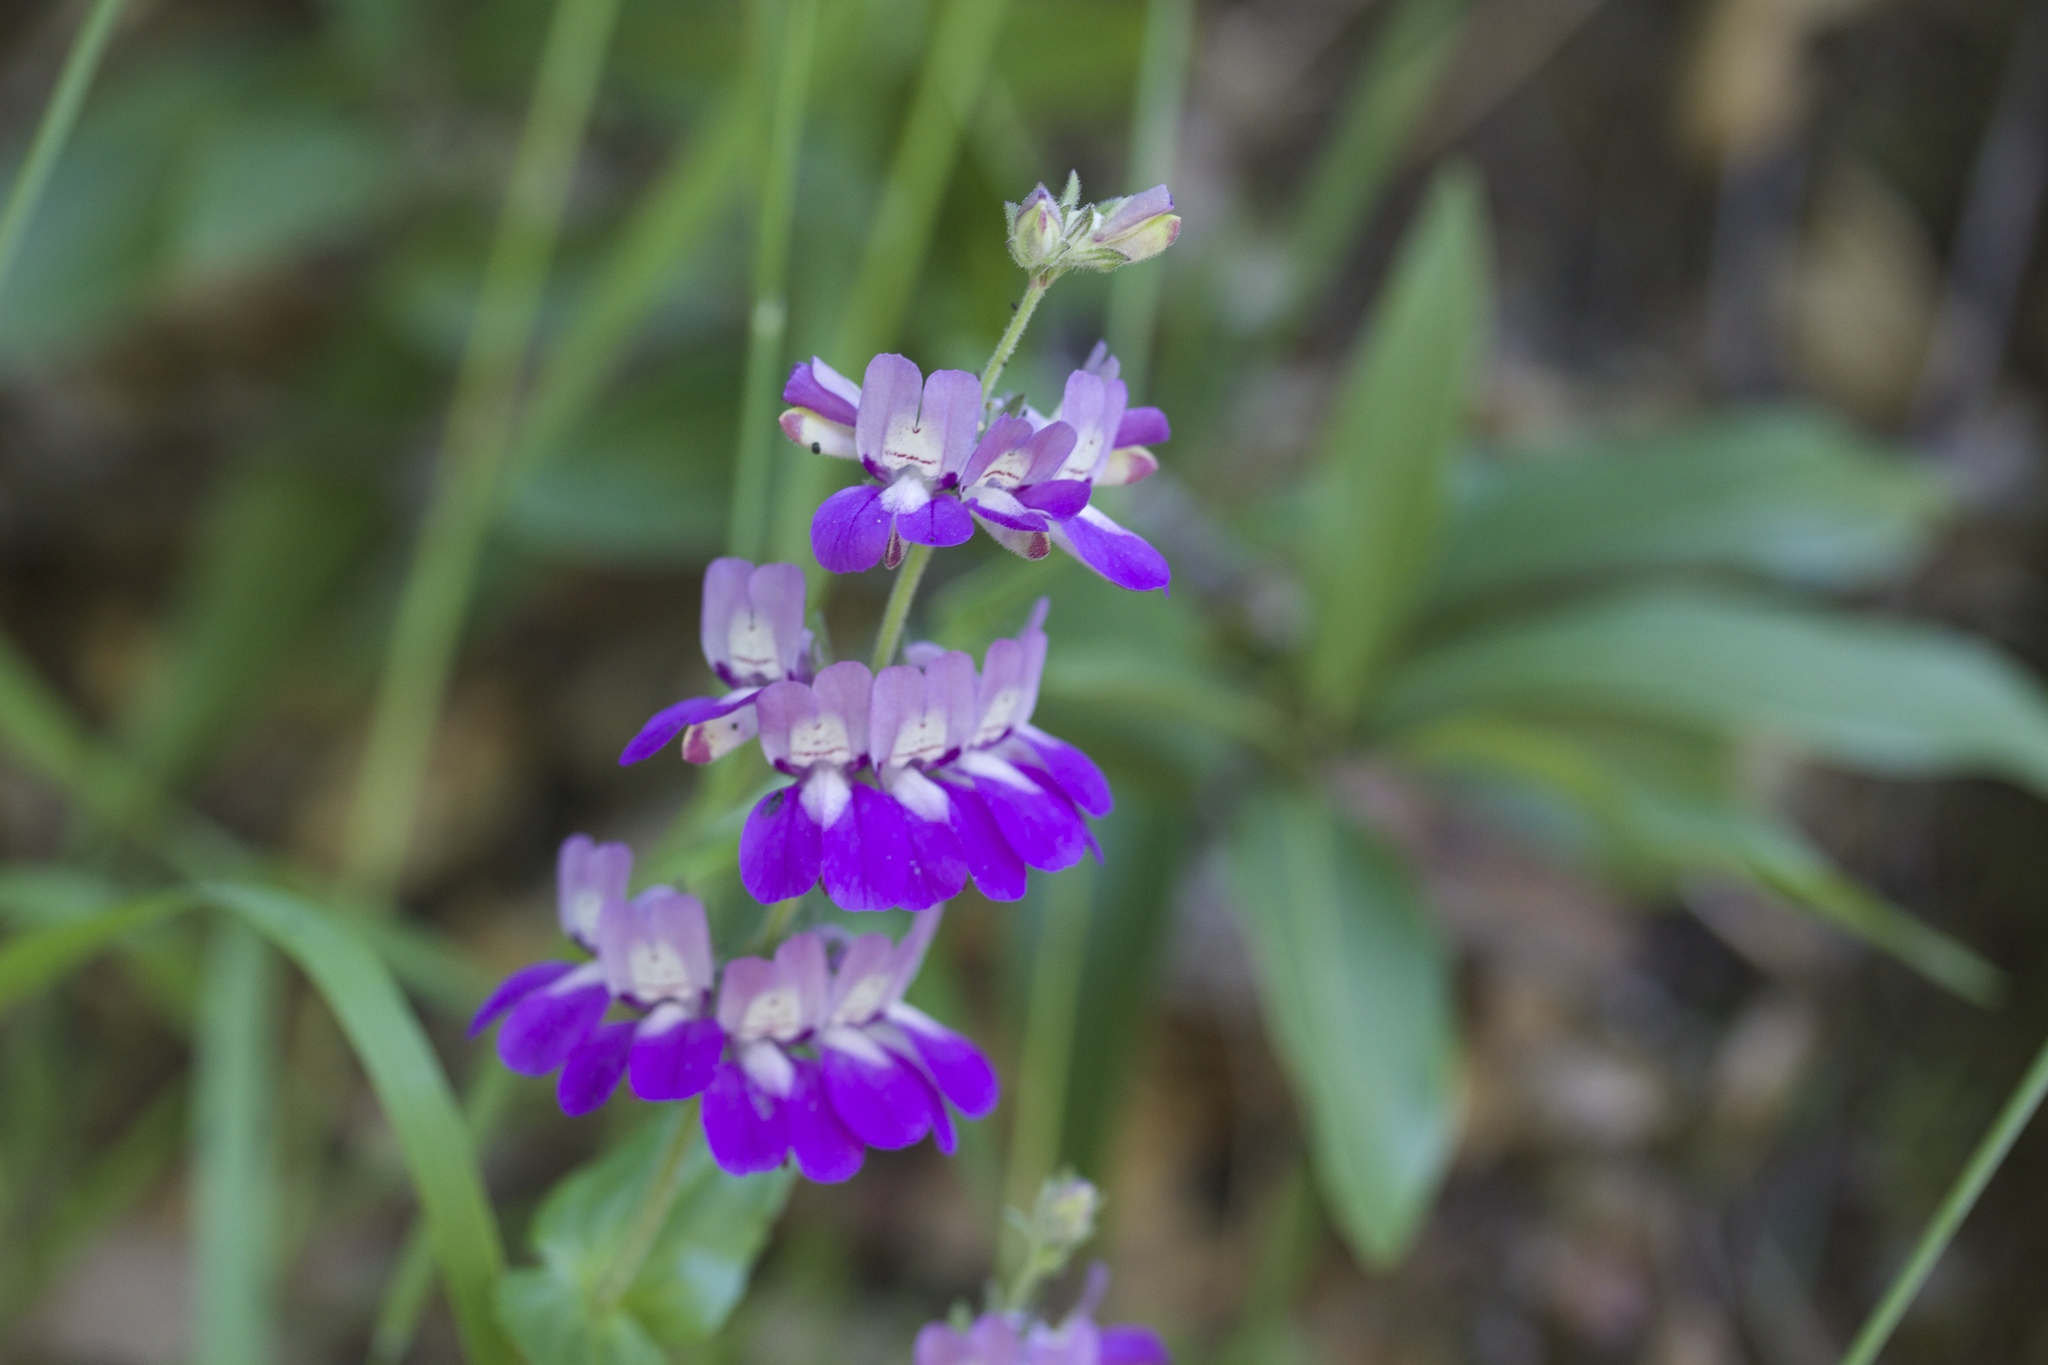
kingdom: Plantae
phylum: Tracheophyta
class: Magnoliopsida
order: Lamiales
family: Plantaginaceae
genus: Collinsia
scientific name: Collinsia heterophylla
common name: Chinese-houses
